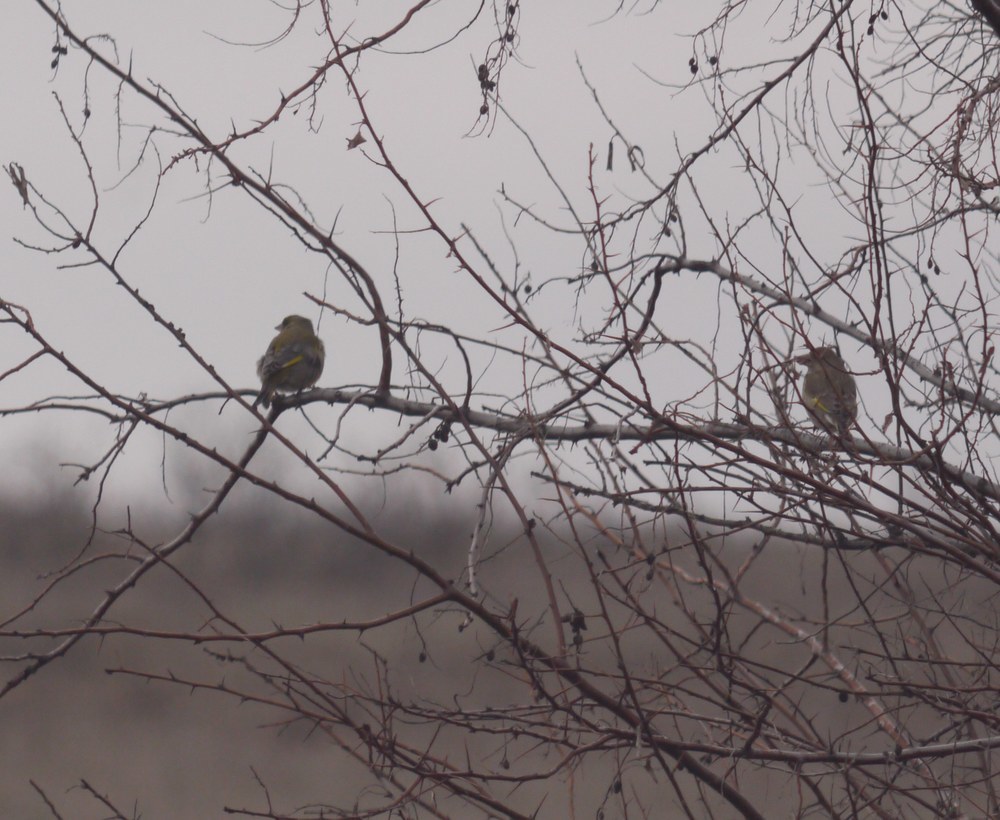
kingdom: Plantae
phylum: Tracheophyta
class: Liliopsida
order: Poales
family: Poaceae
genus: Chloris
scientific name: Chloris chloris
